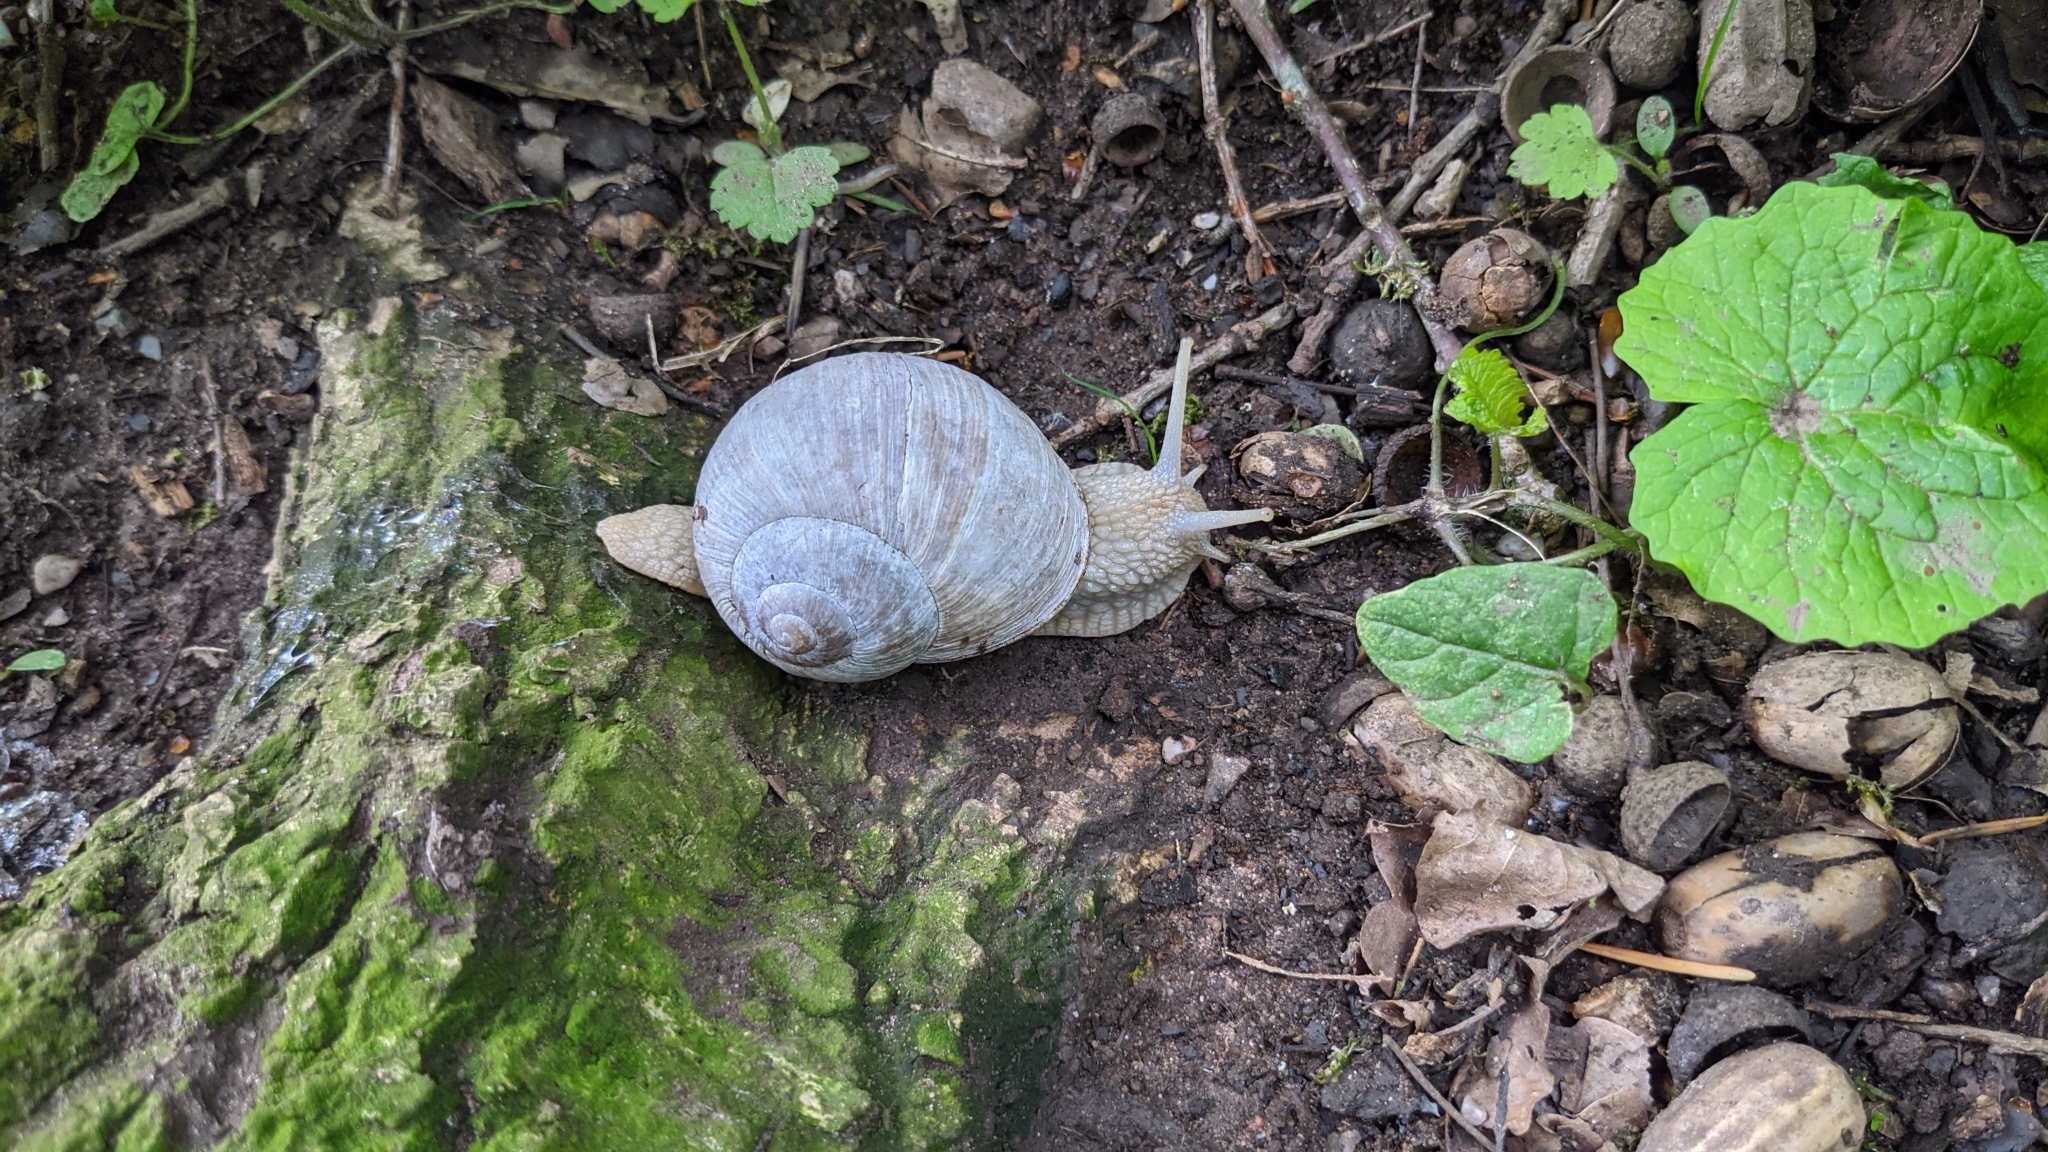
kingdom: Animalia
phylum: Mollusca
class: Gastropoda
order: Stylommatophora
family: Helicidae
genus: Helix
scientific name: Helix pomatia
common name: Roman snail
